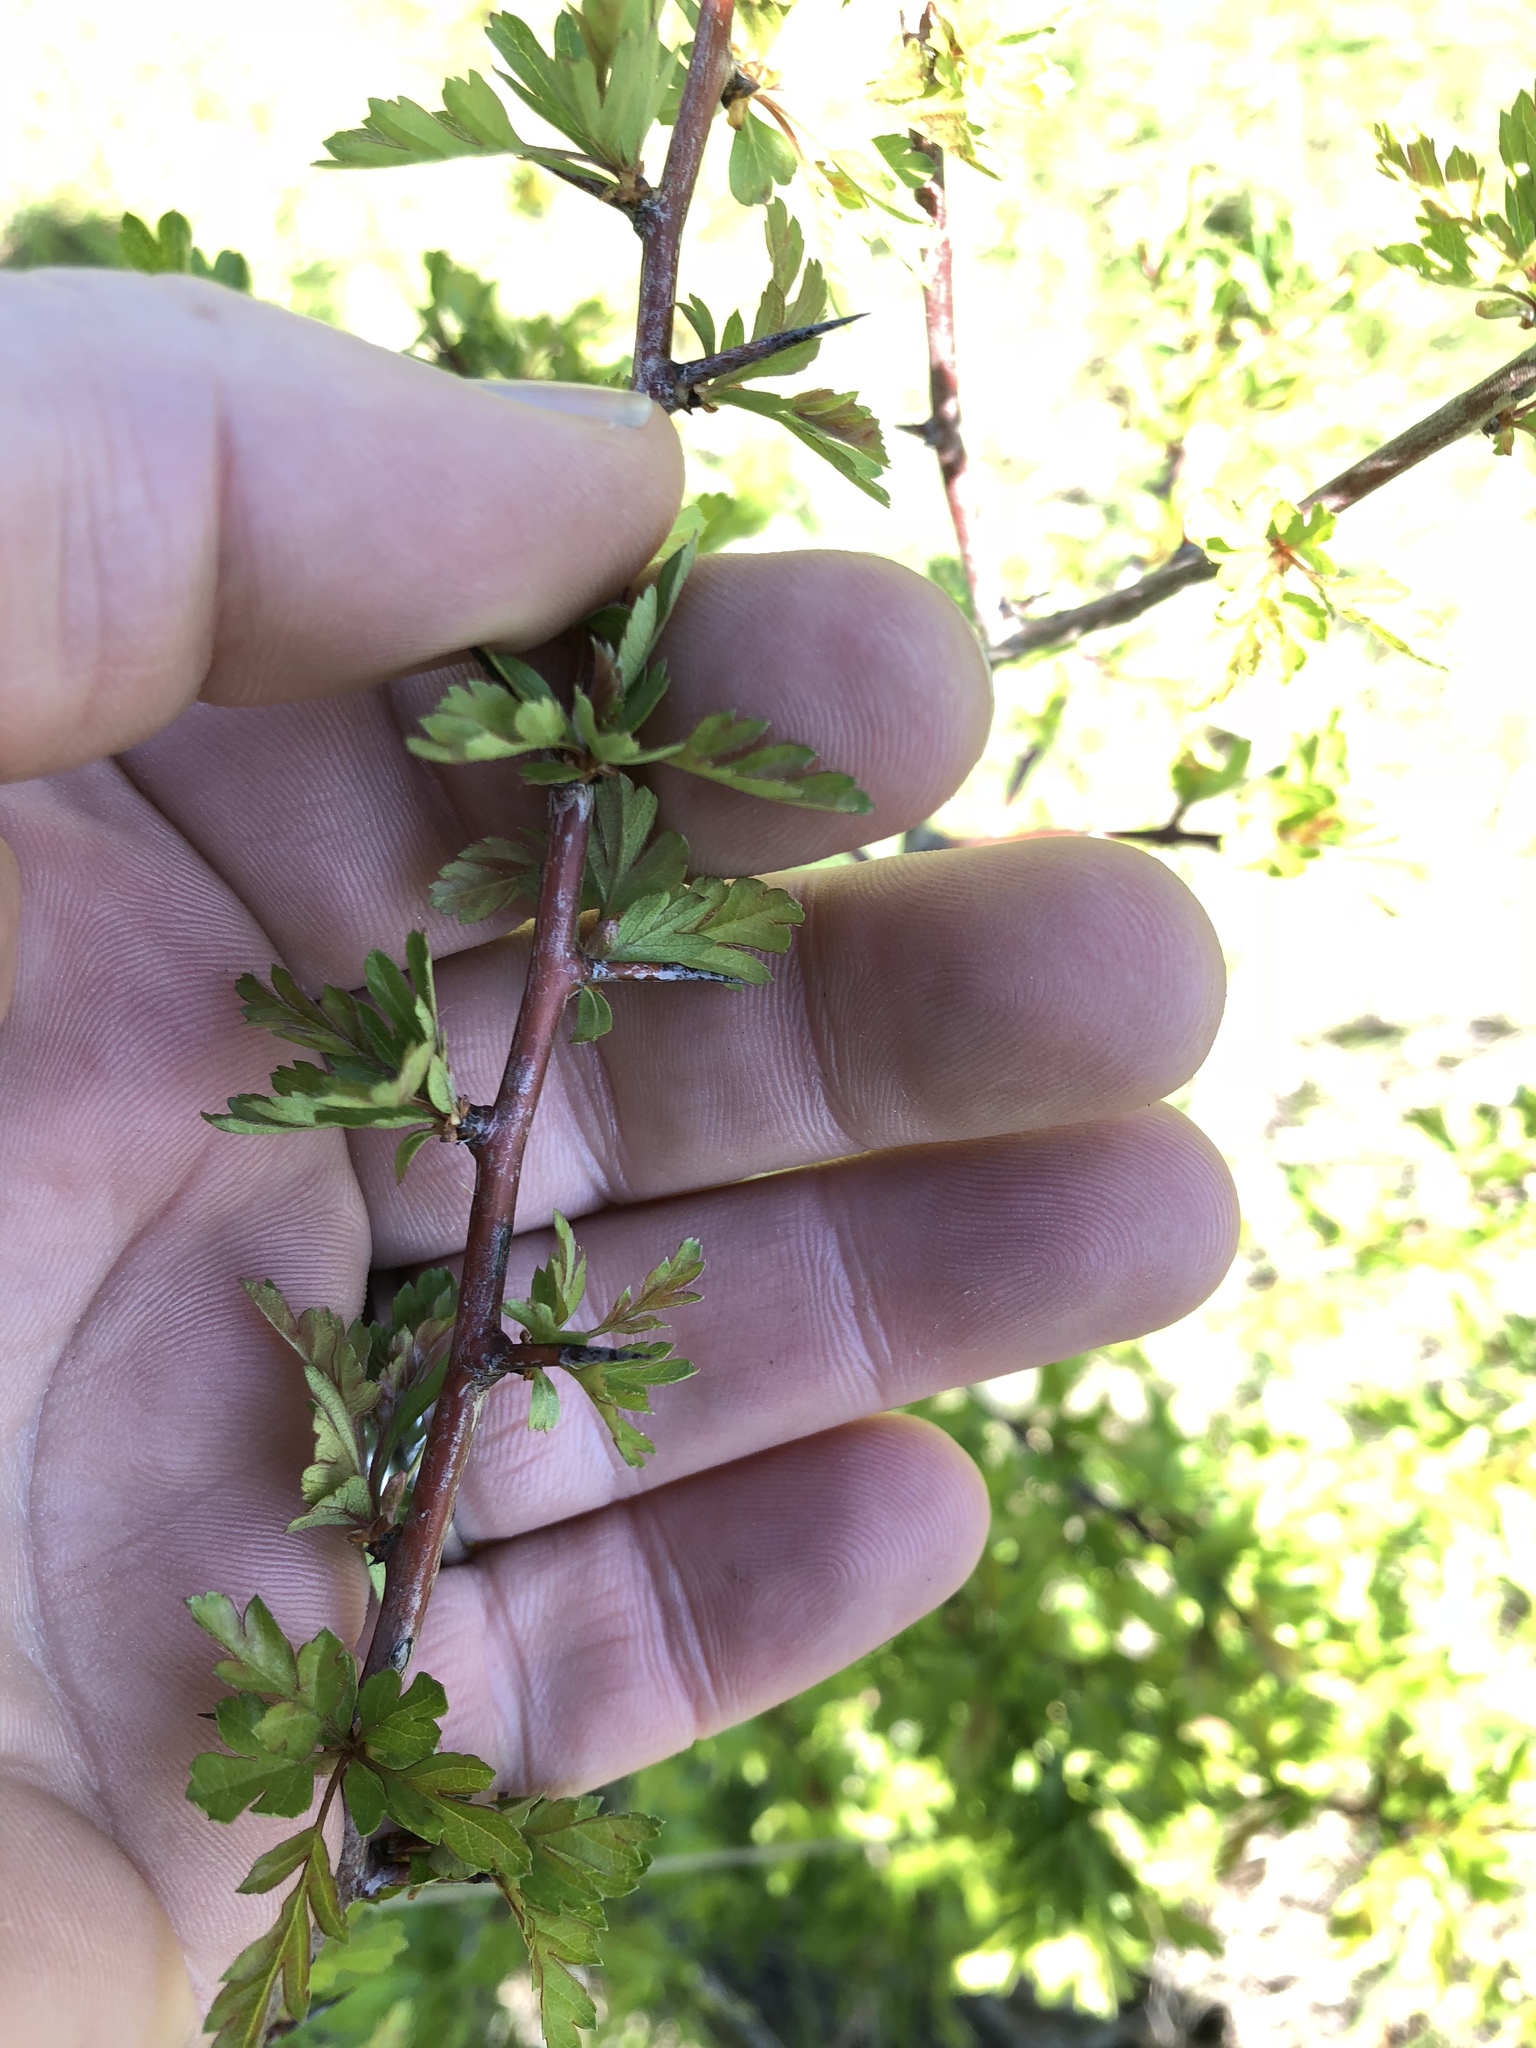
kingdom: Plantae
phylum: Tracheophyta
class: Magnoliopsida
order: Rosales
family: Rosaceae
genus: Crataegus
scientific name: Crataegus monogyna
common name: Hawthorn
